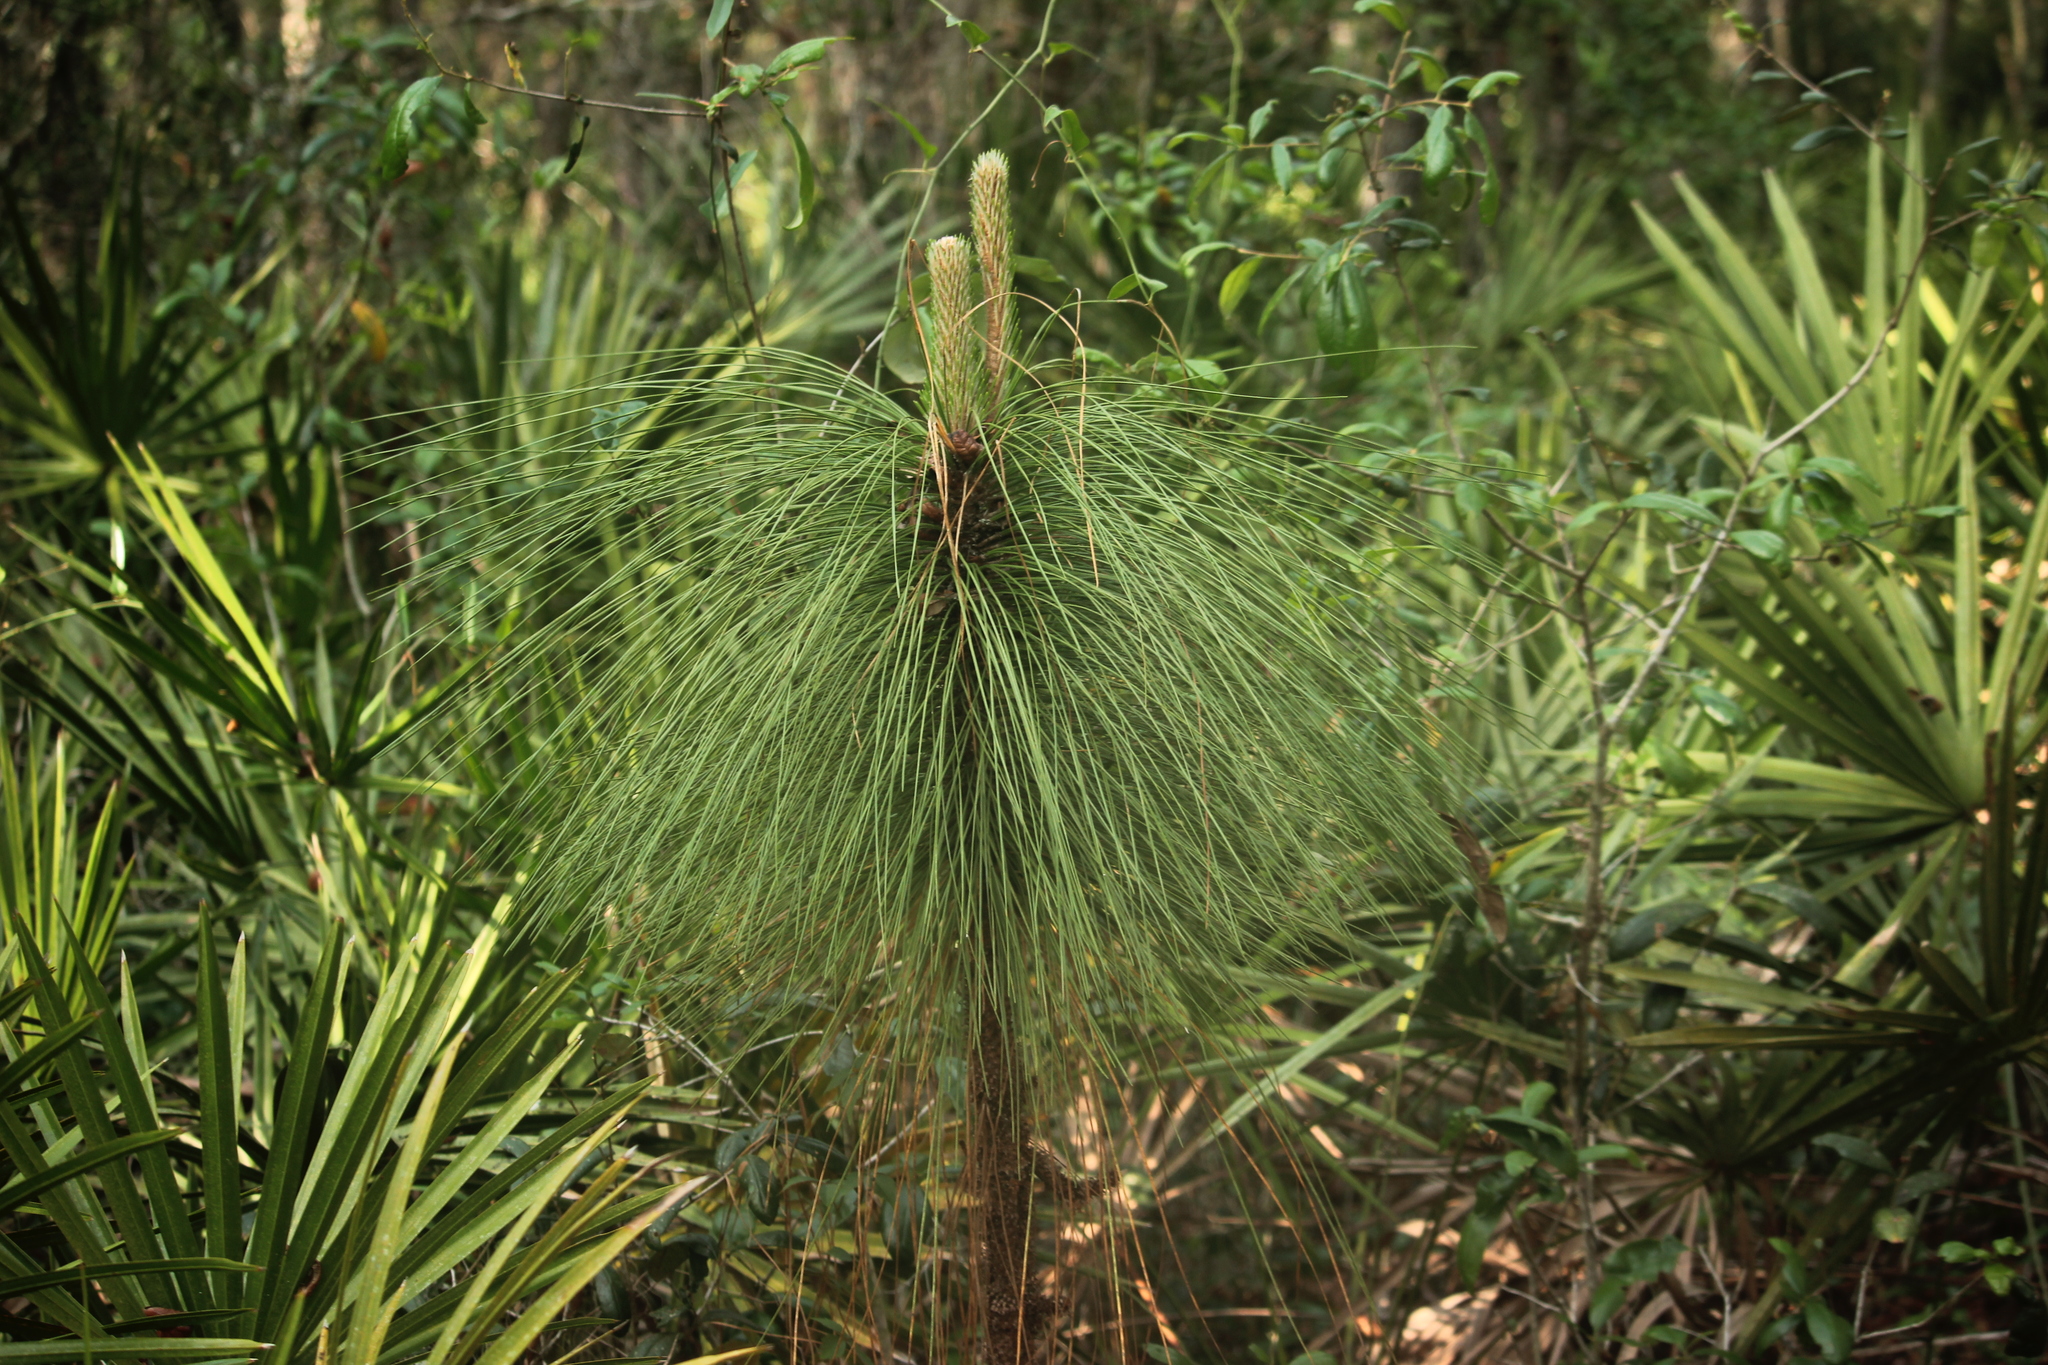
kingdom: Plantae
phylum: Tracheophyta
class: Pinopsida
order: Pinales
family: Pinaceae
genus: Pinus
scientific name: Pinus palustris
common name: Longleaf pine
